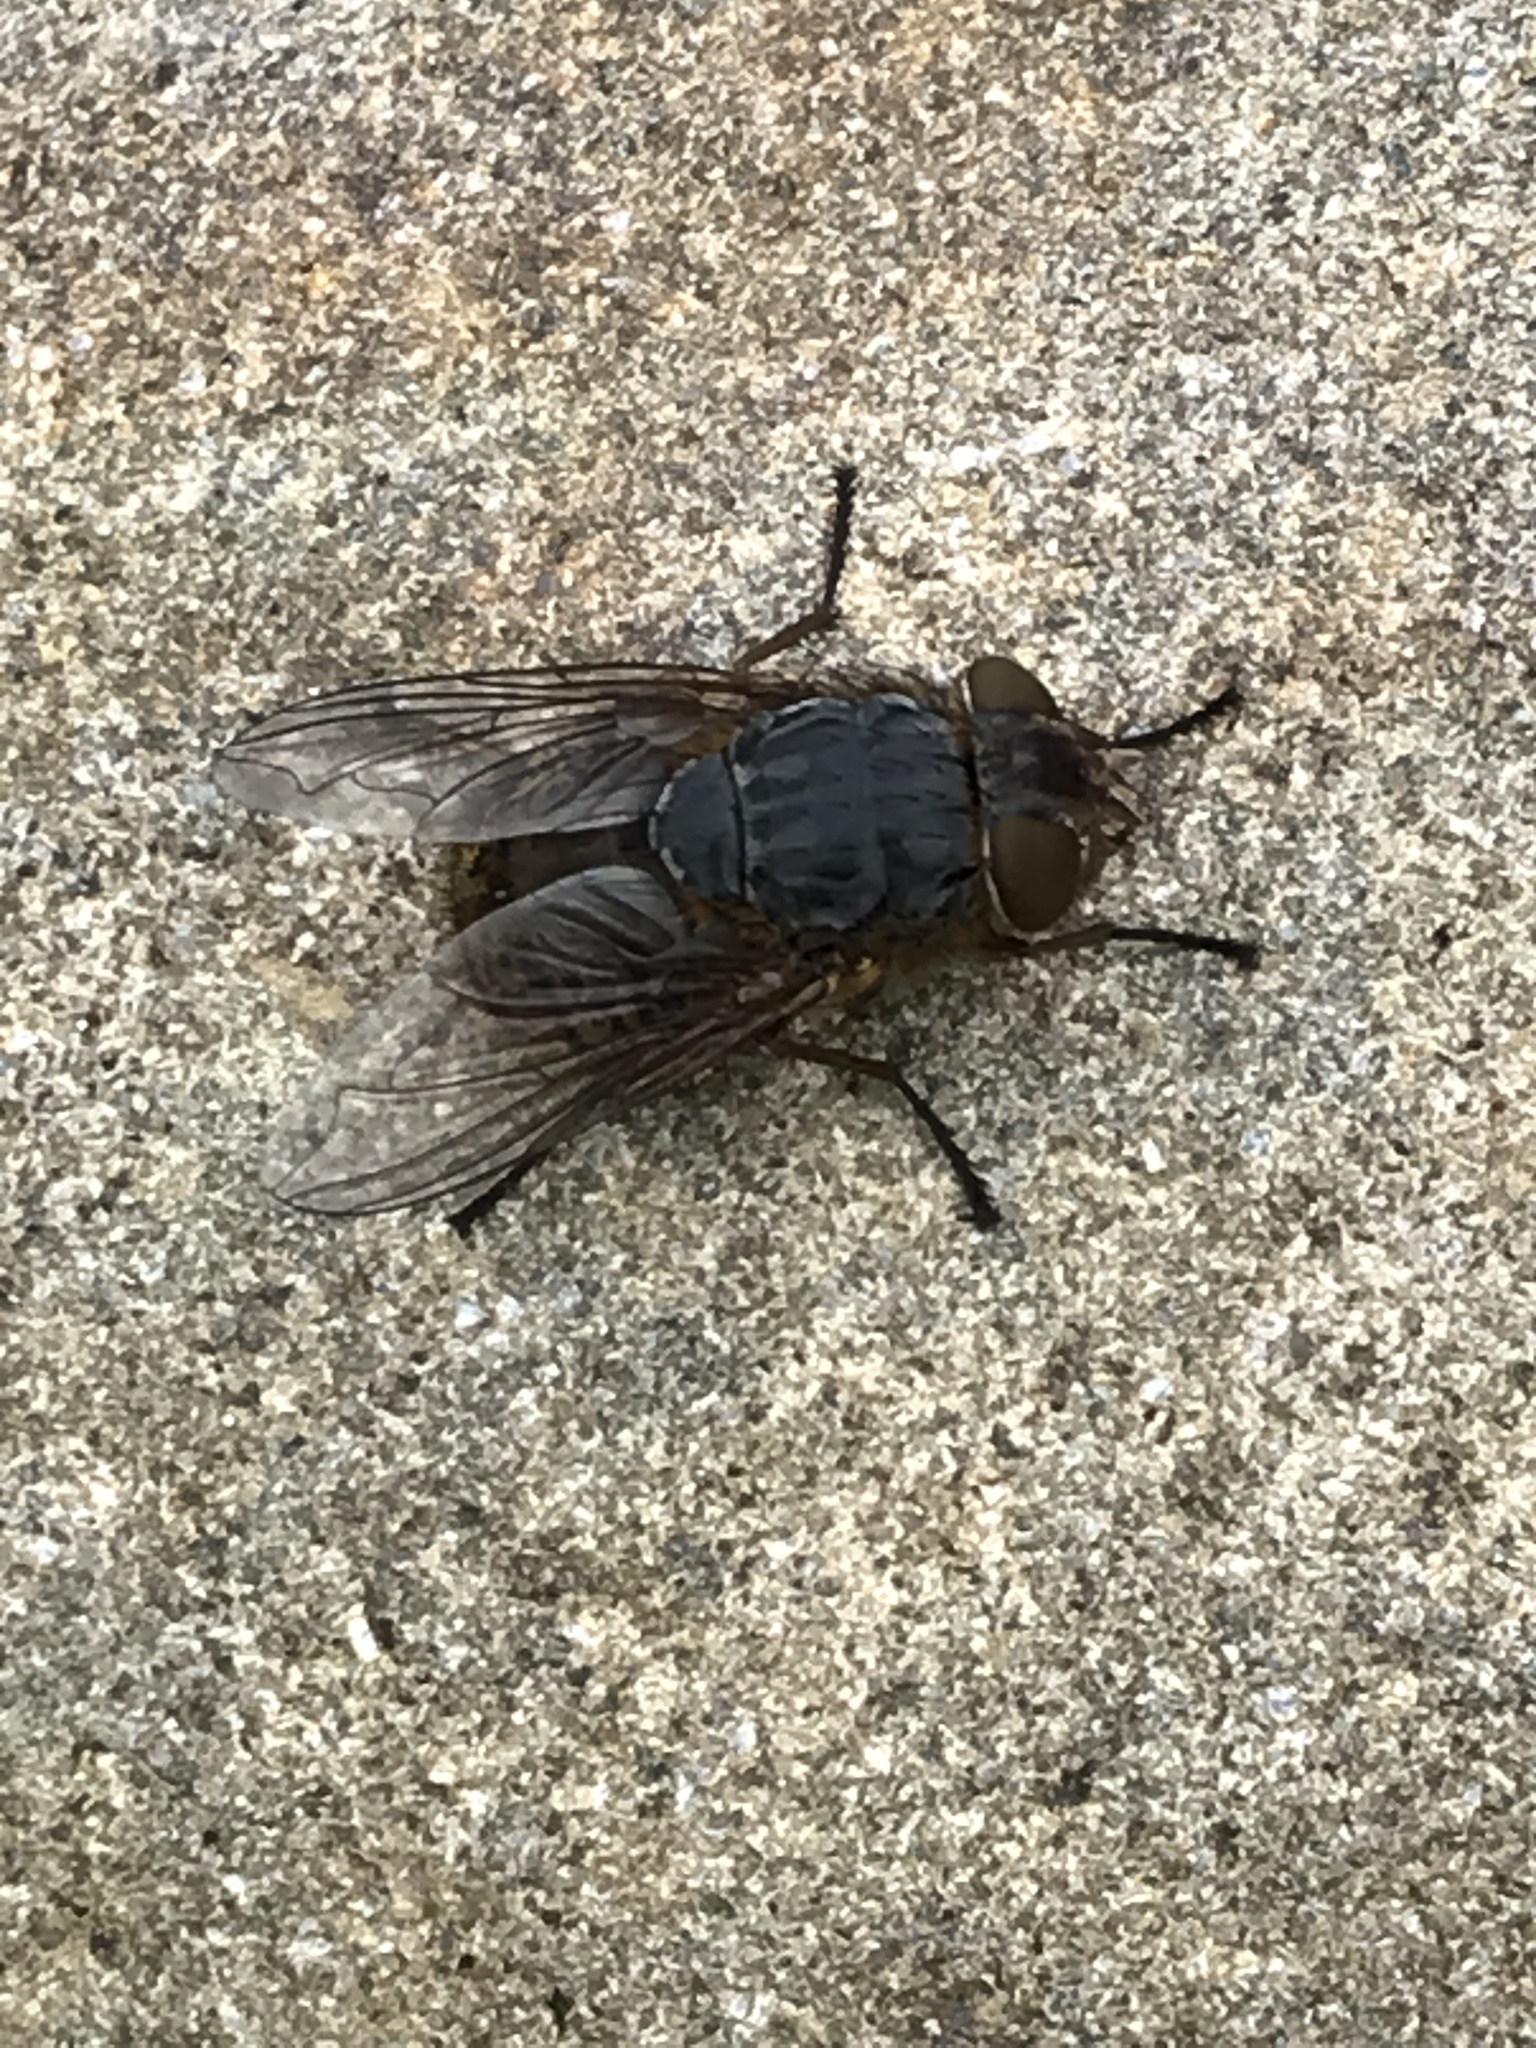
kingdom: Animalia
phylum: Arthropoda
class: Insecta
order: Diptera
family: Calliphoridae
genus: Calliphora
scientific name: Calliphora stygia
